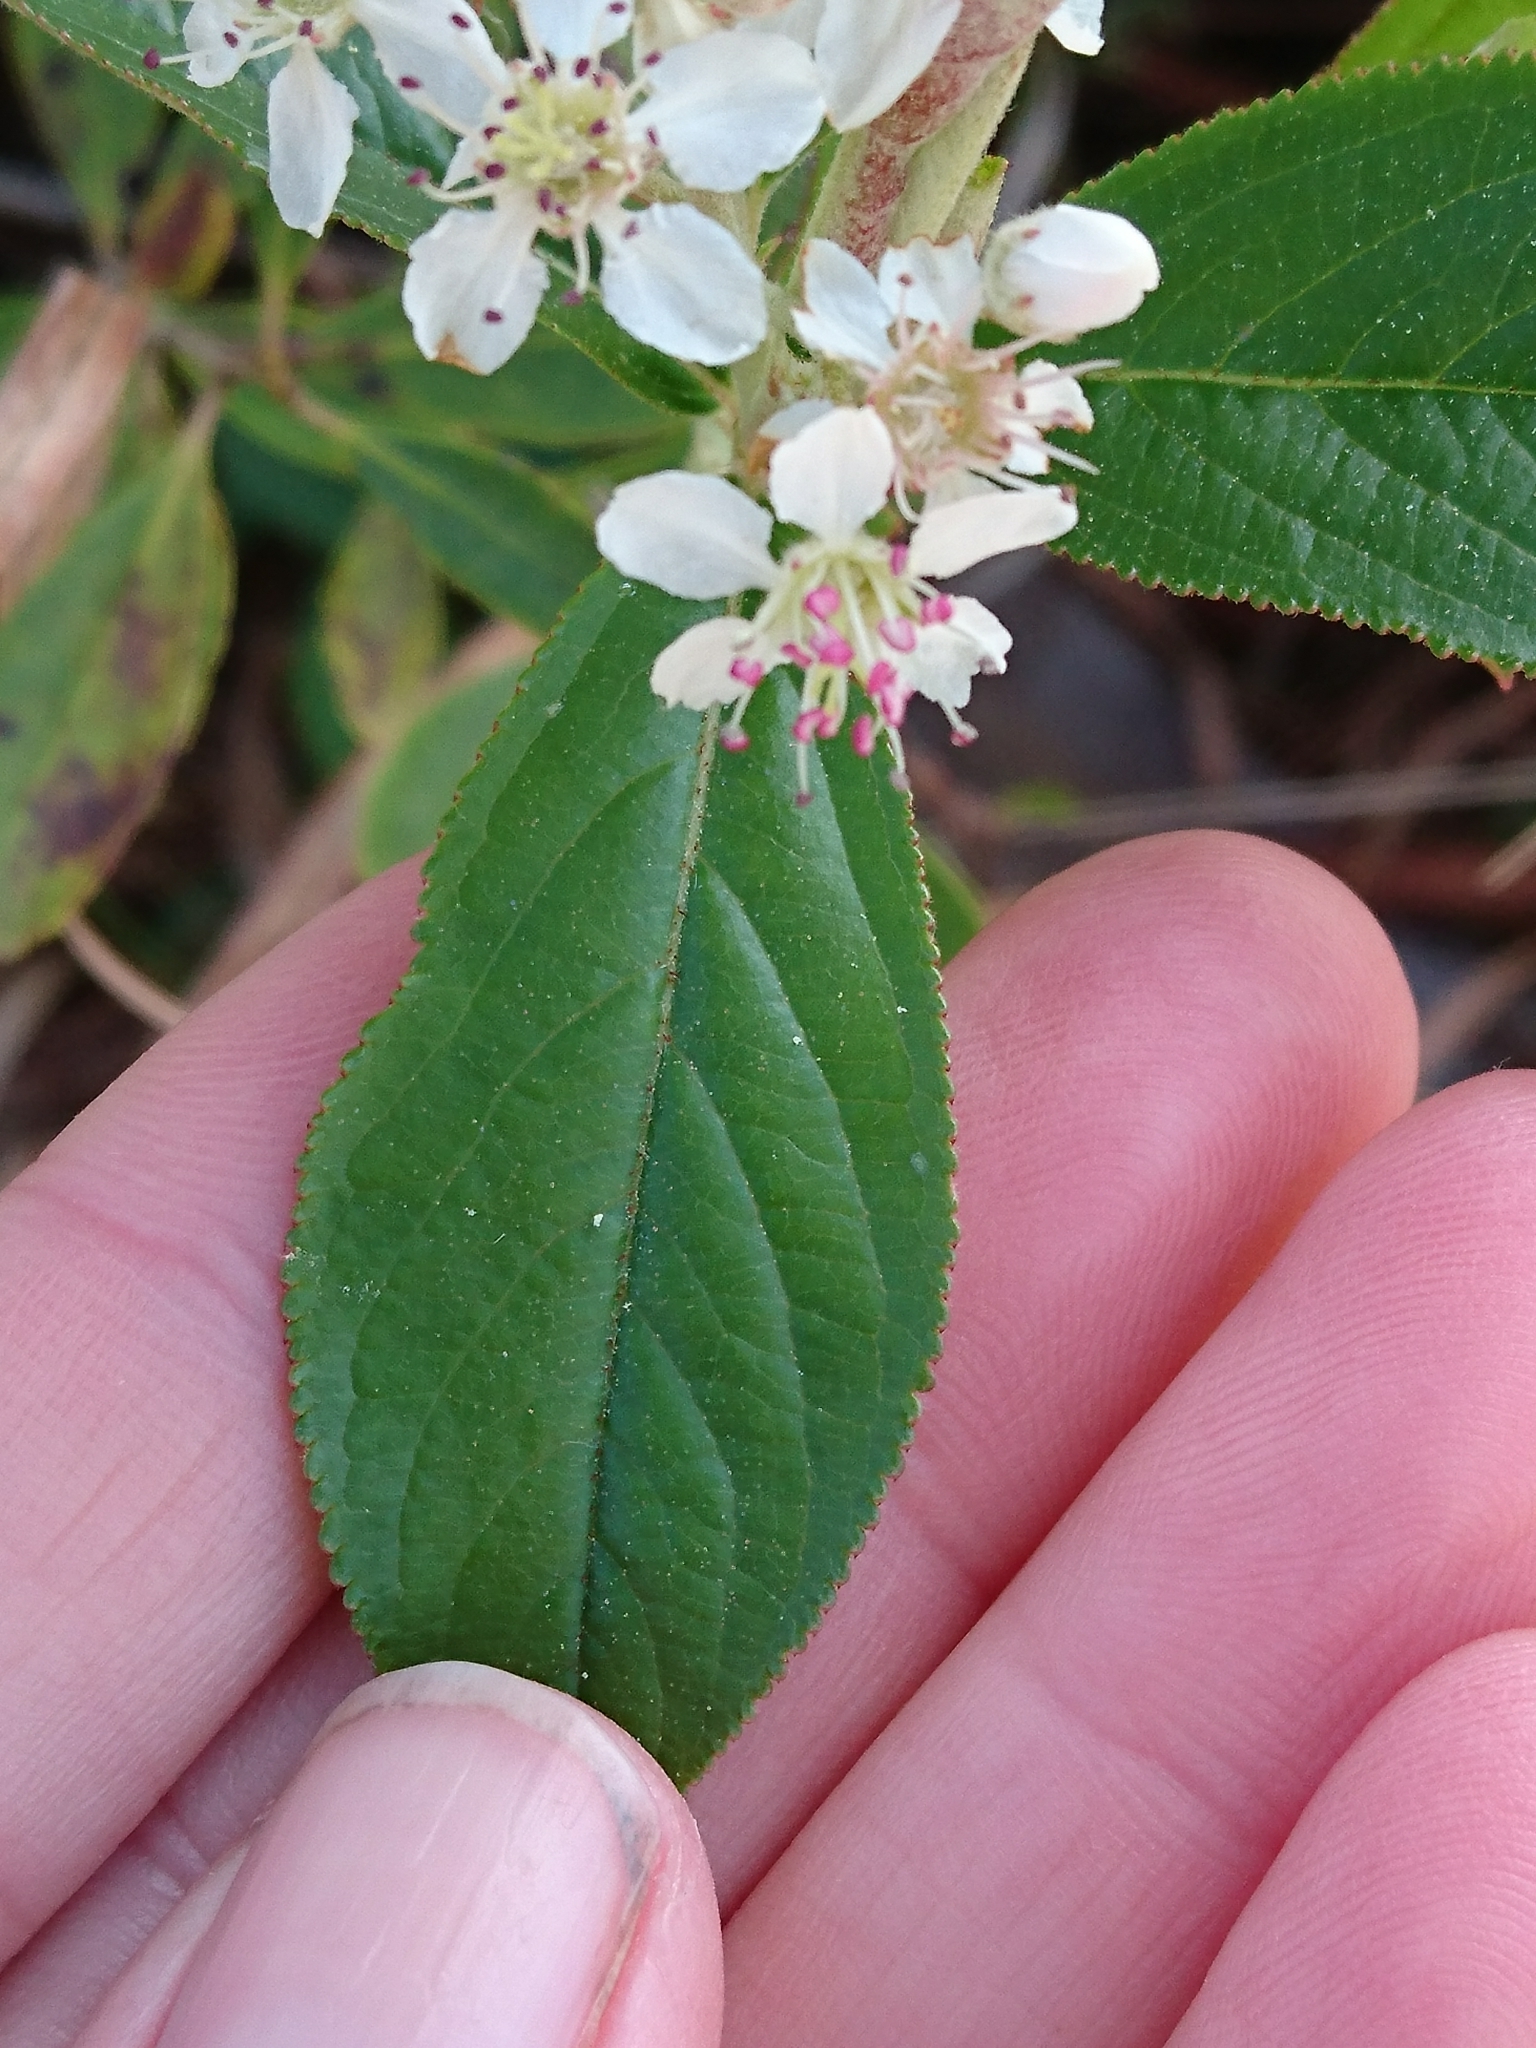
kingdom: Plantae
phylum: Tracheophyta
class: Magnoliopsida
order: Rosales
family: Rosaceae
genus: Aronia
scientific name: Aronia arbutifolia
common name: Red chokeberry
